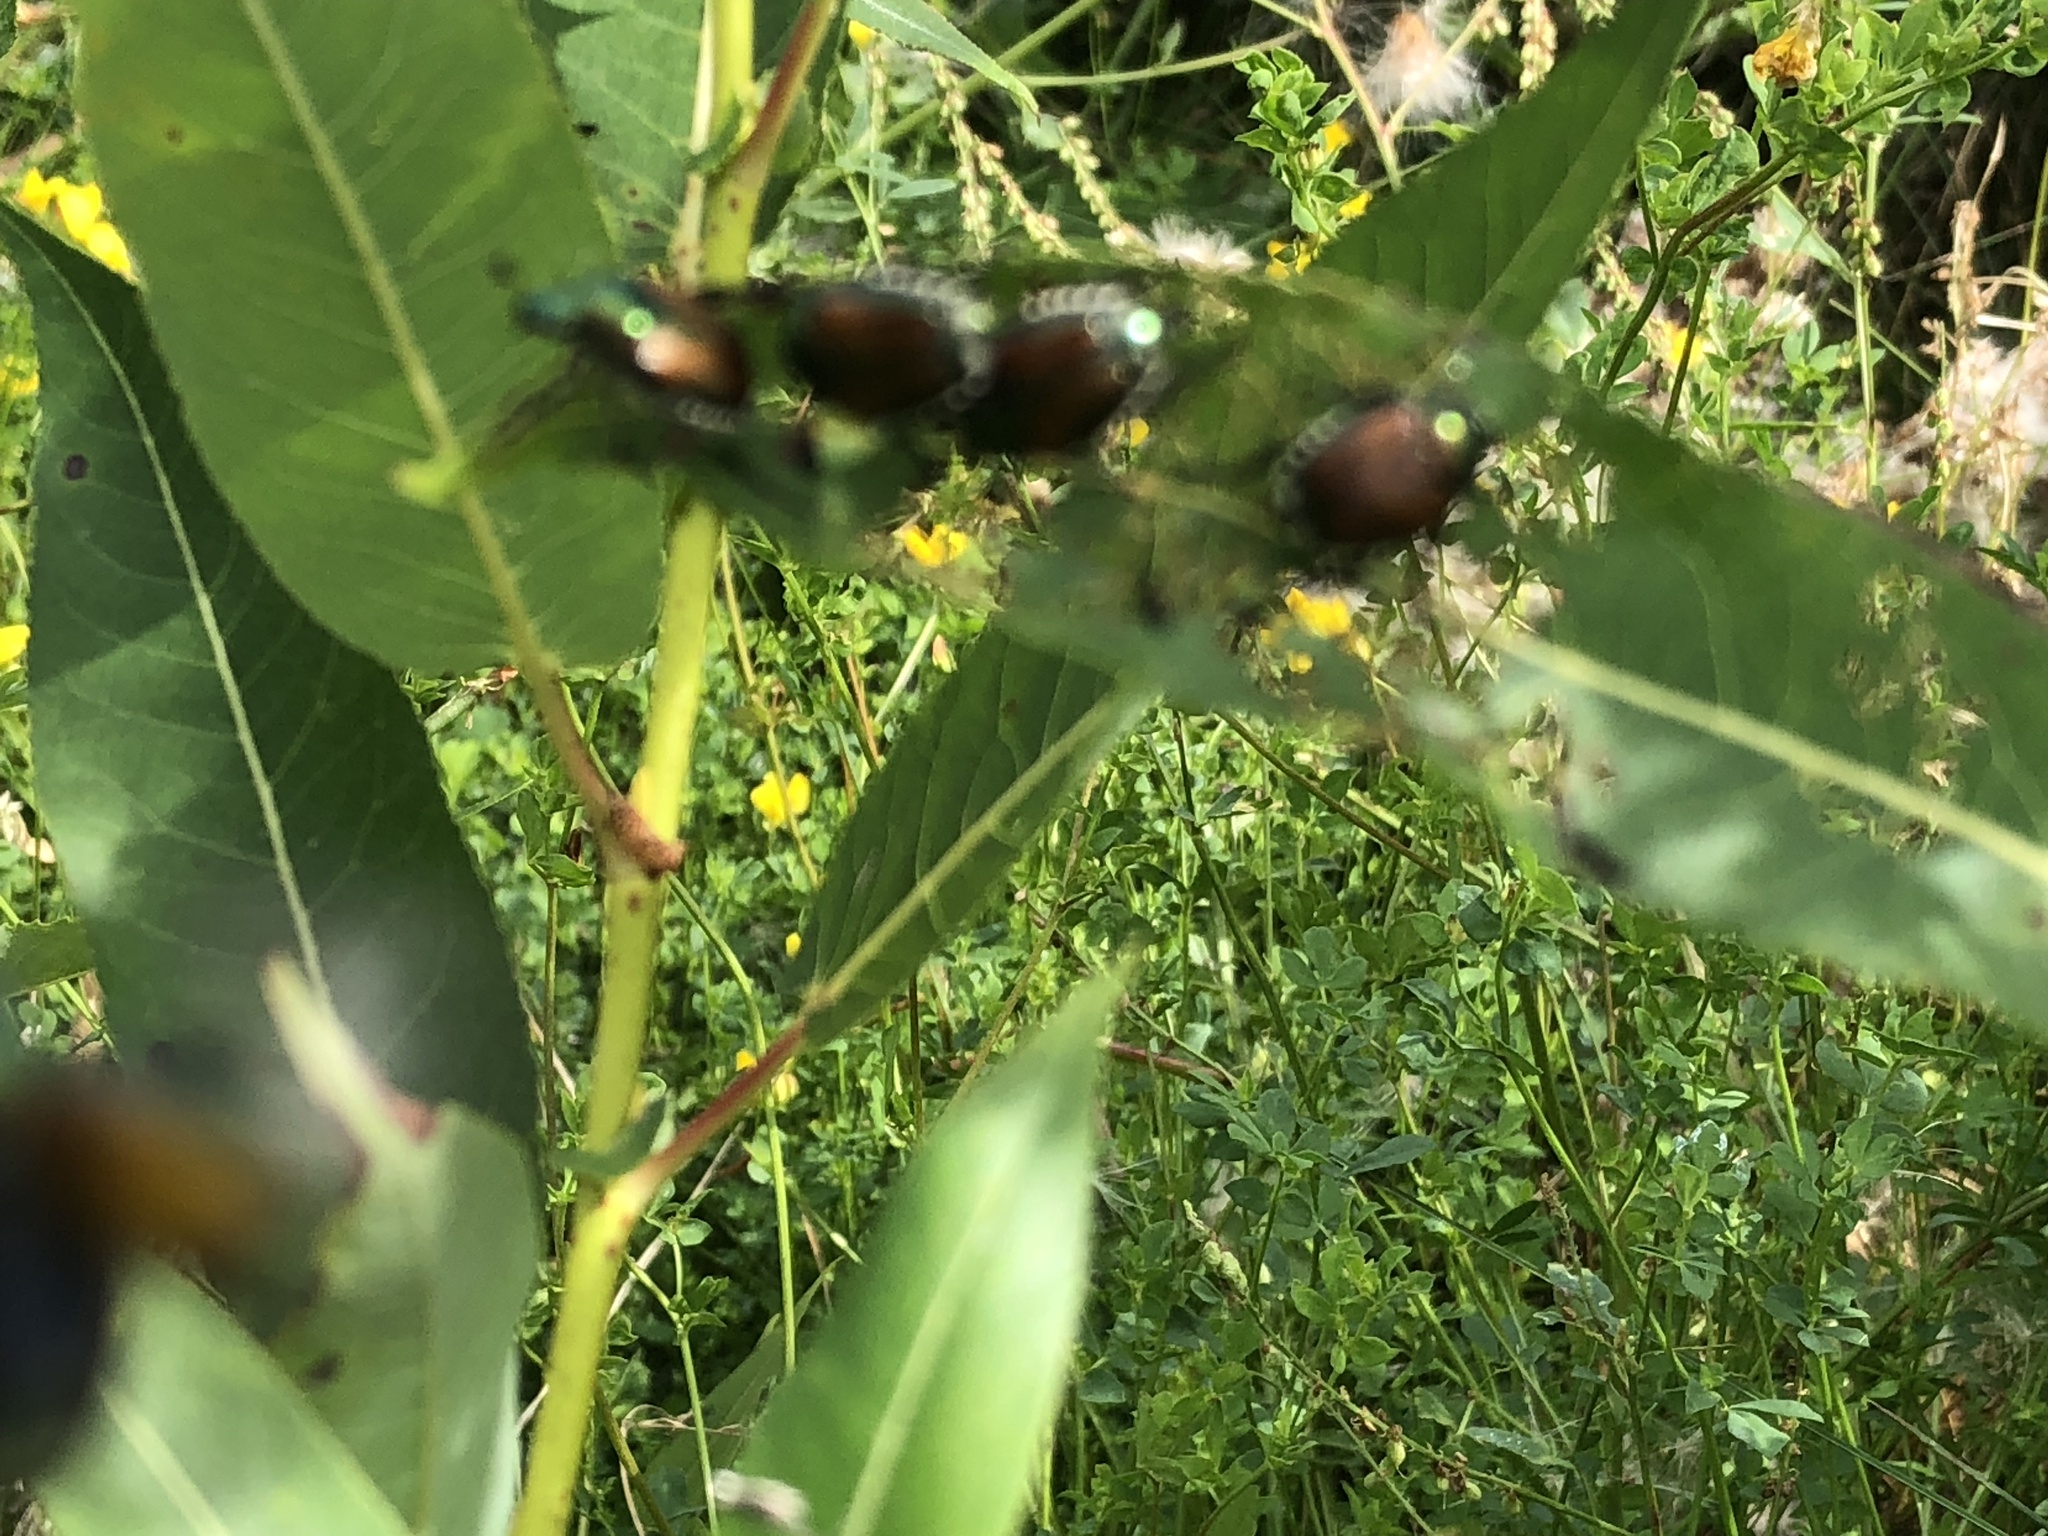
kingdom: Animalia
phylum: Arthropoda
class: Insecta
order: Coleoptera
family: Scarabaeidae
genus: Popillia
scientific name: Popillia japonica
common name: Japanese beetle
